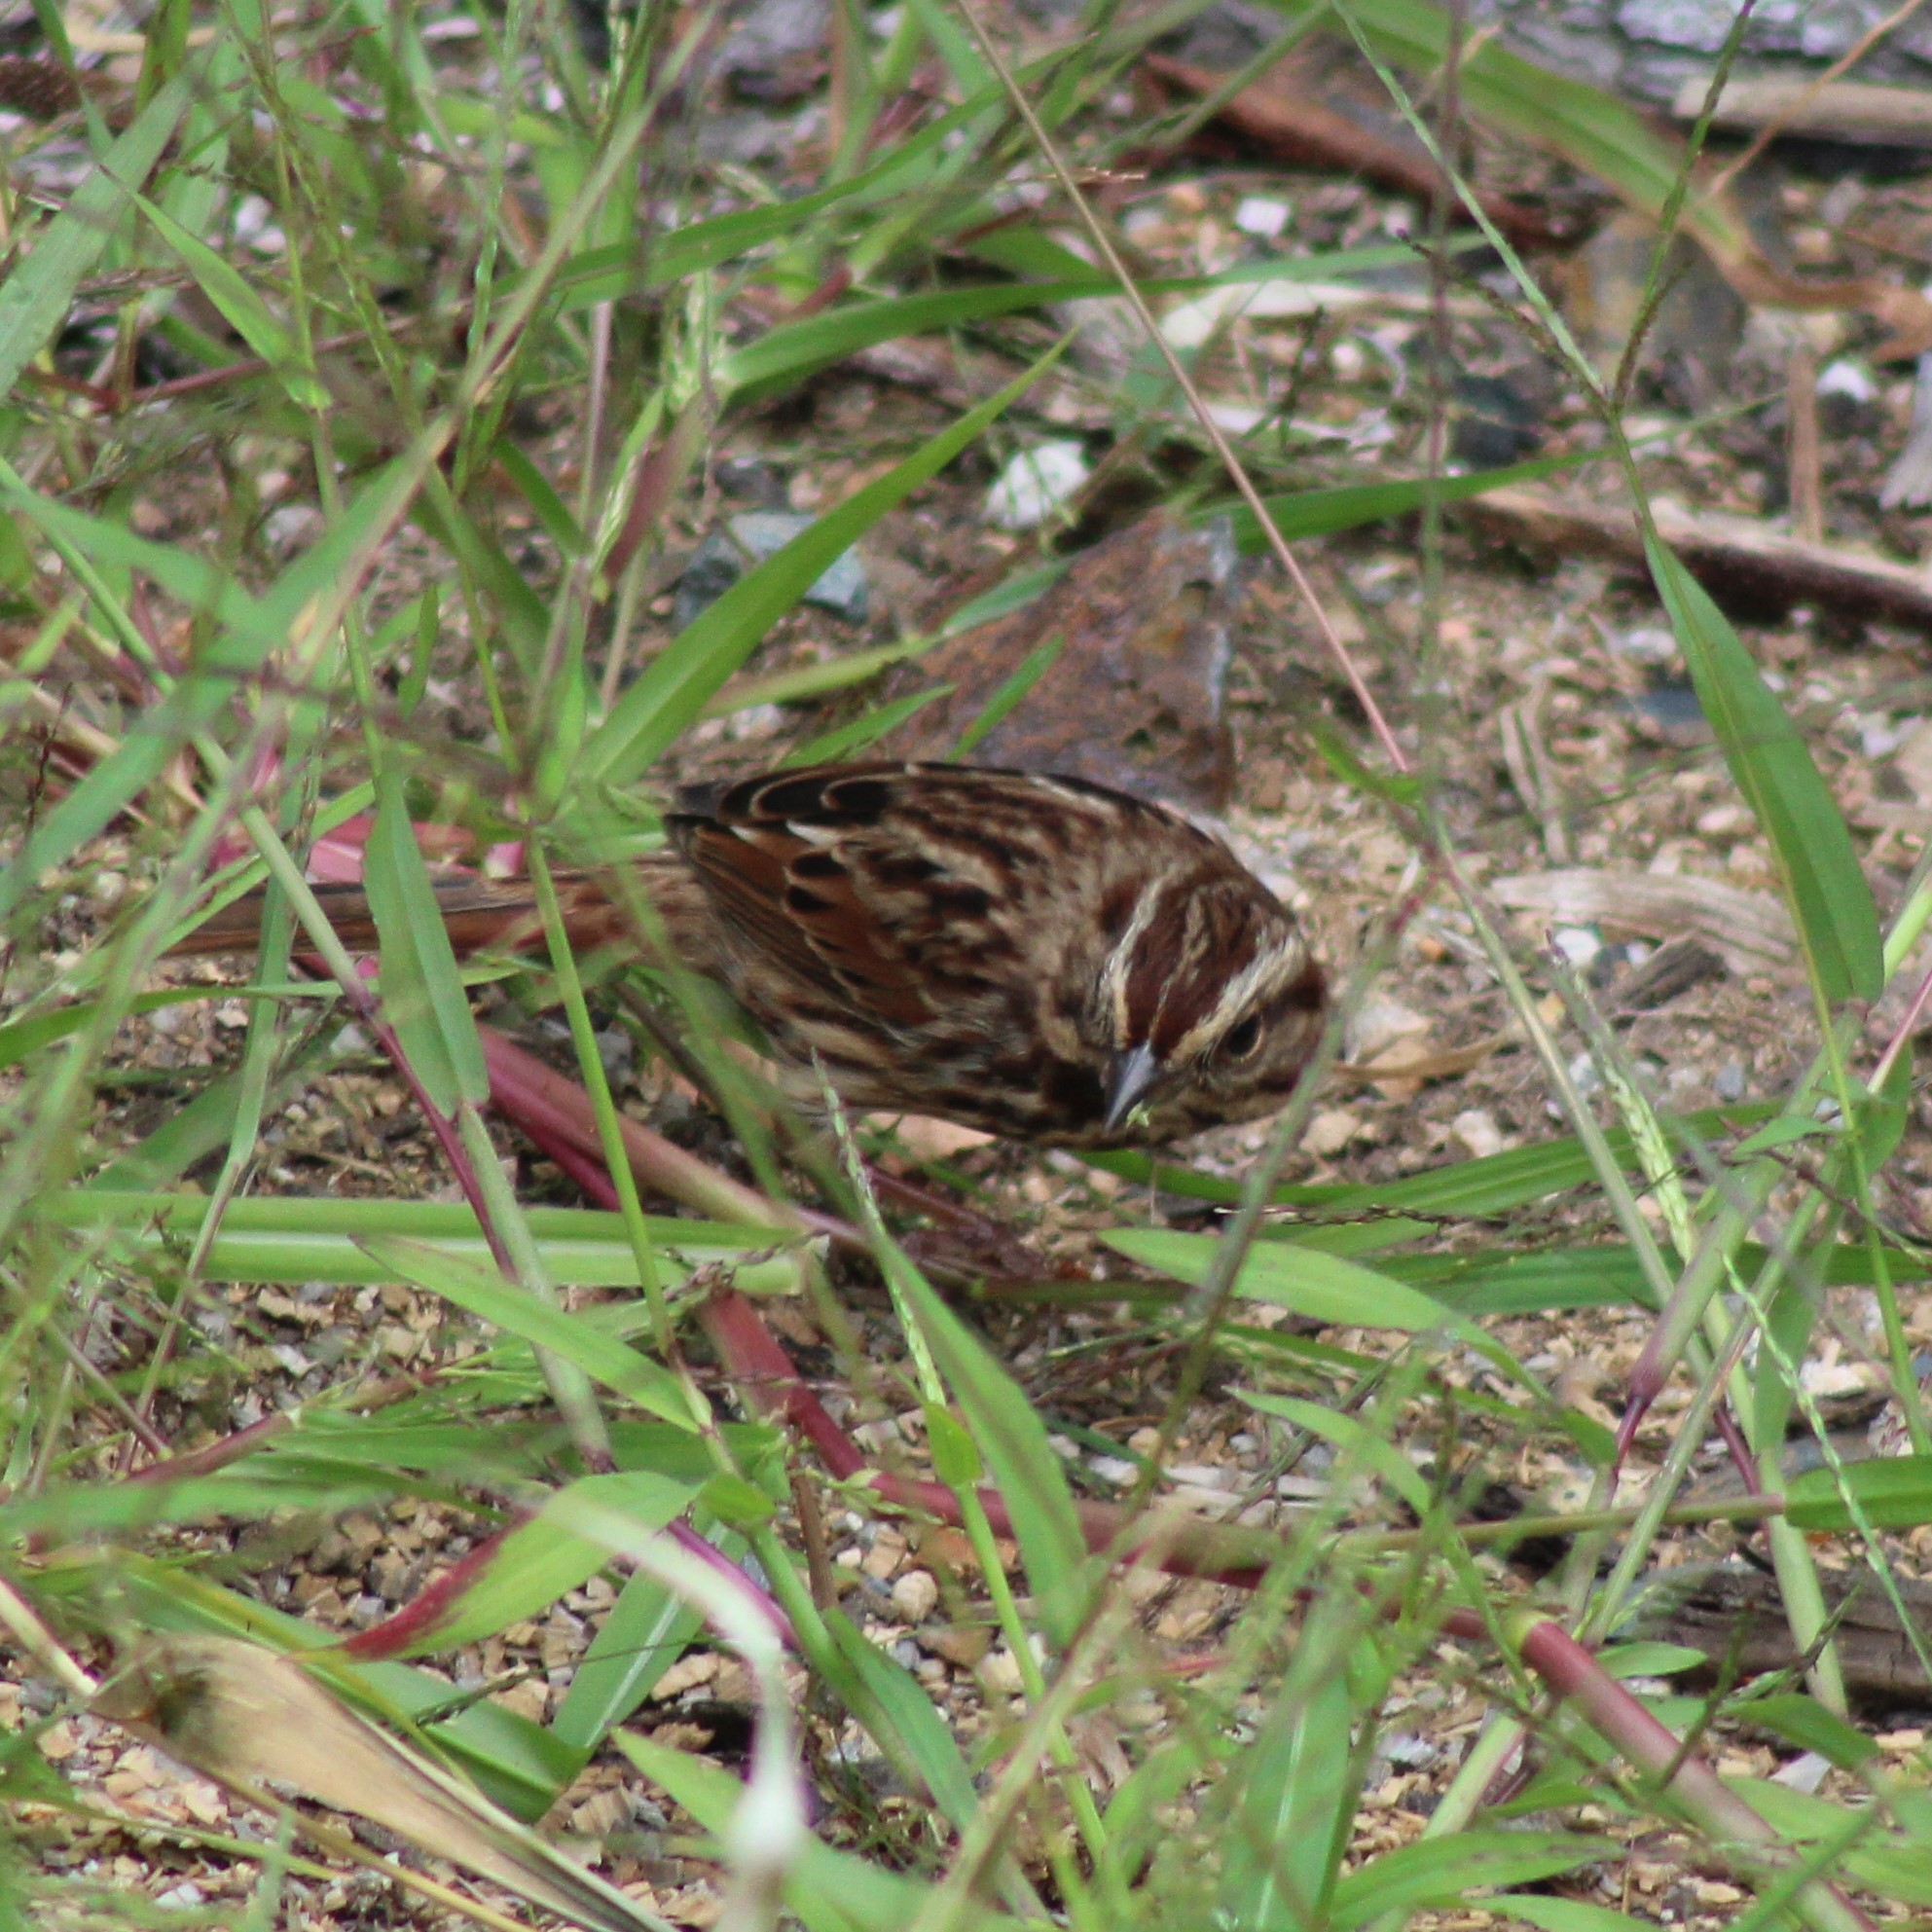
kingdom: Animalia
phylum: Chordata
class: Aves
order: Passeriformes
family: Passerellidae
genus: Melospiza
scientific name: Melospiza melodia
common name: Song sparrow
